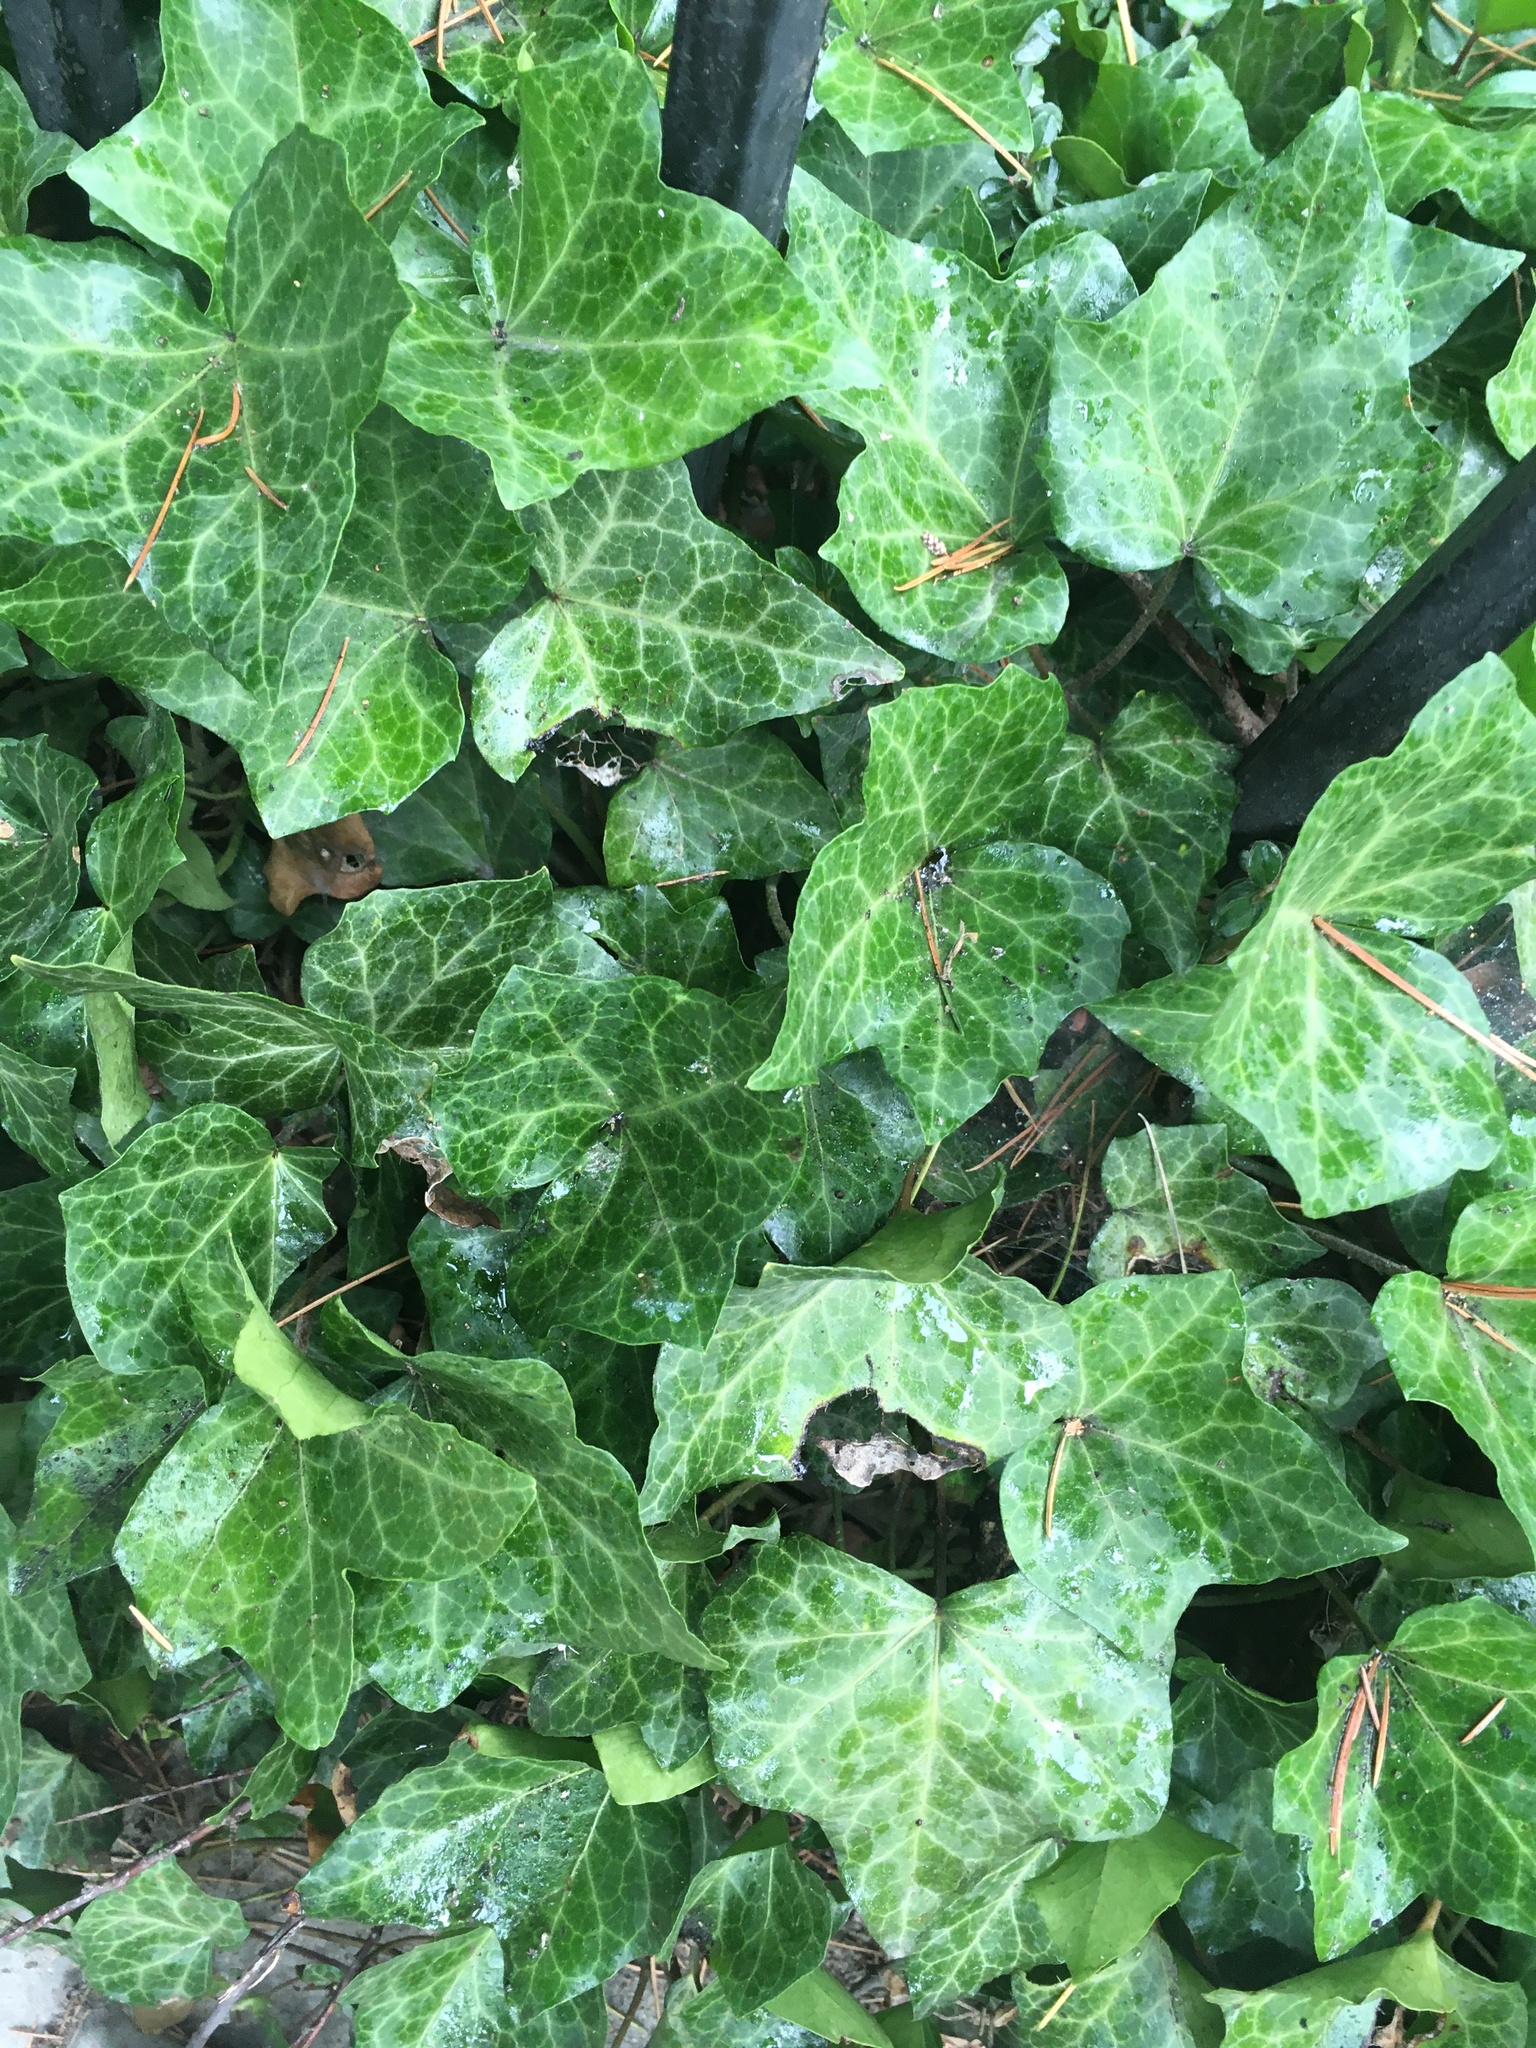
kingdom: Plantae
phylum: Tracheophyta
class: Magnoliopsida
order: Apiales
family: Araliaceae
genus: Hedera
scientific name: Hedera helix
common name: Ivy
